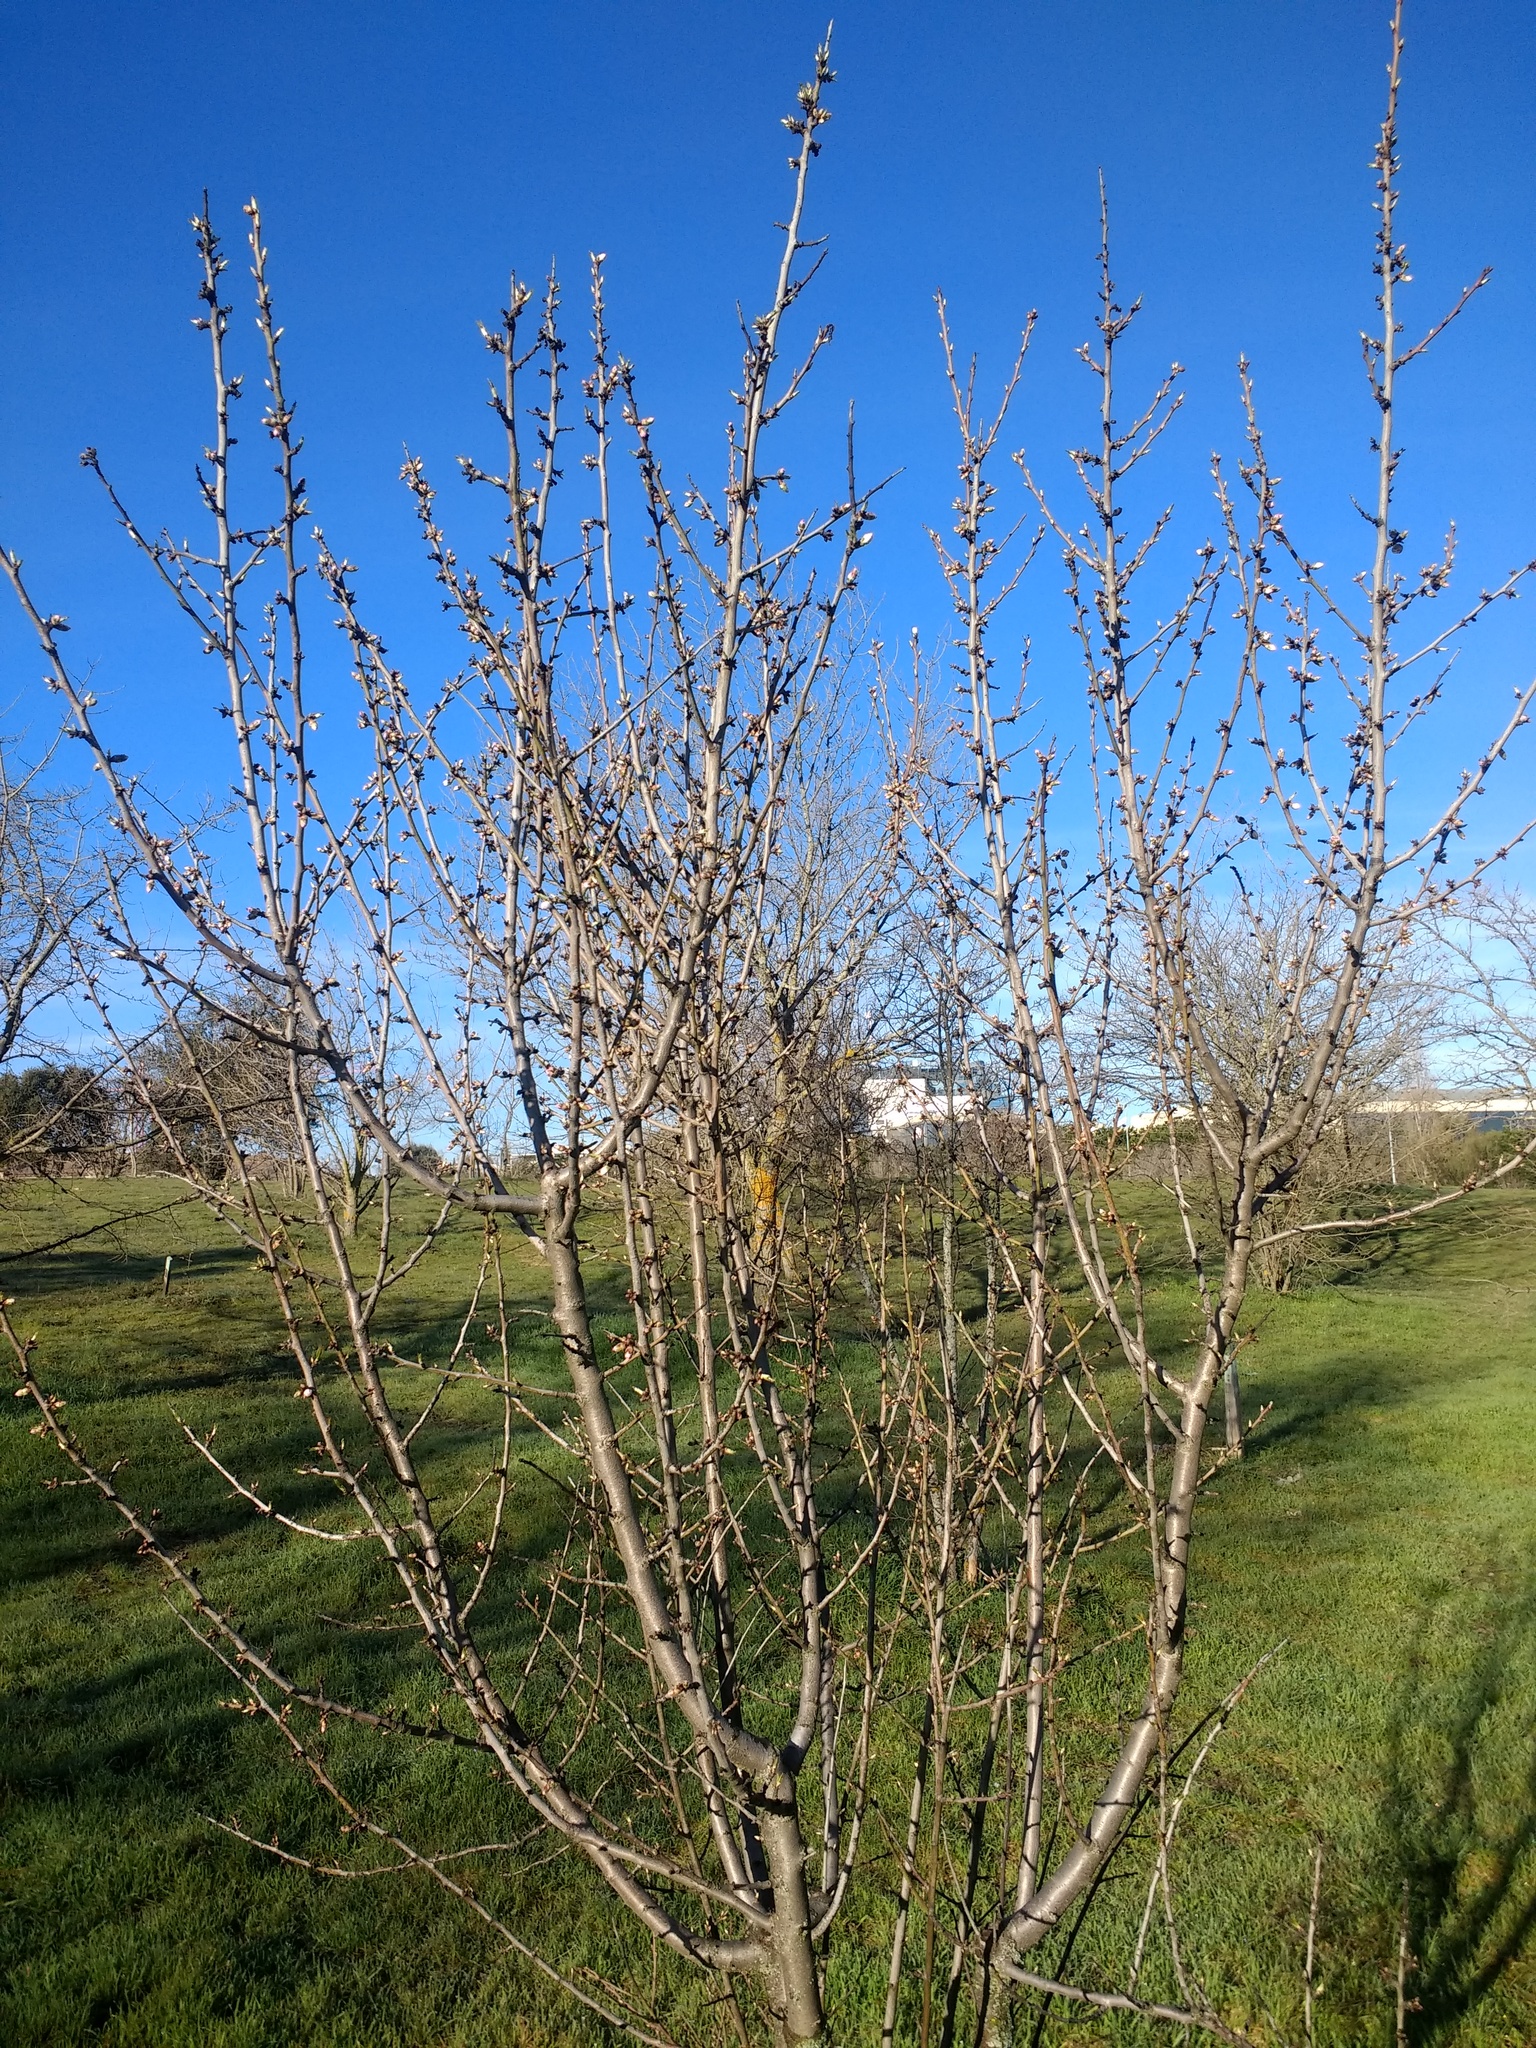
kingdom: Plantae
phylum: Tracheophyta
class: Magnoliopsida
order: Rosales
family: Rosaceae
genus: Prunus
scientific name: Prunus amygdalus
